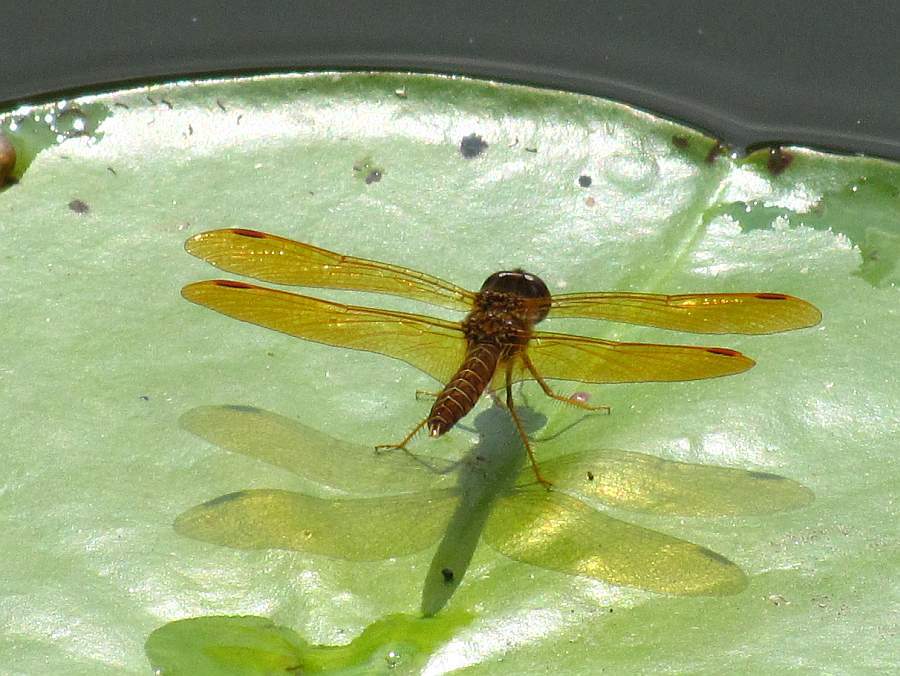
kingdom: Animalia
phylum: Arthropoda
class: Insecta
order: Odonata
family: Libellulidae
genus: Perithemis
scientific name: Perithemis tenera
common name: Eastern amberwing
